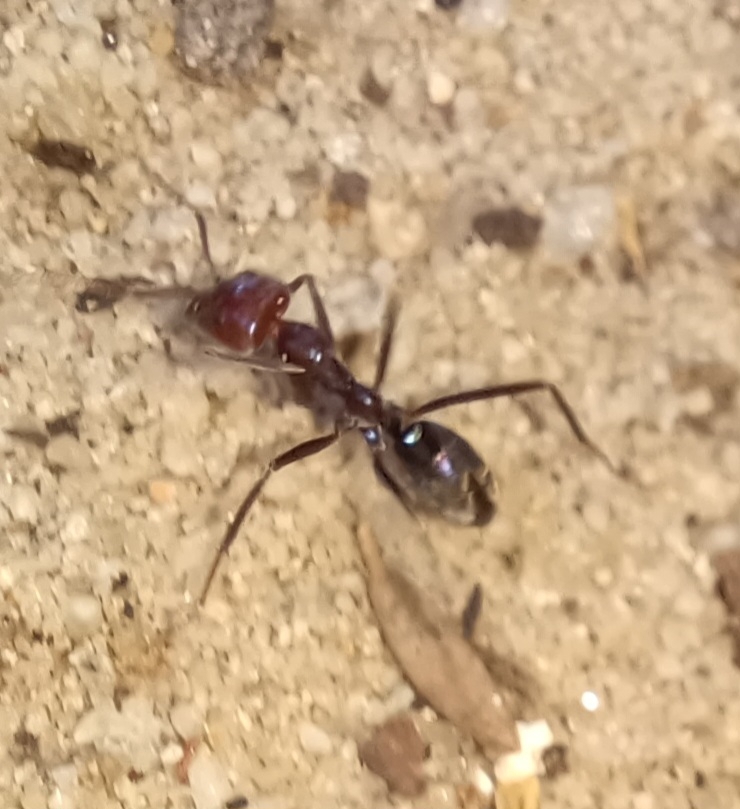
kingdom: Animalia
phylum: Arthropoda
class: Insecta
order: Hymenoptera
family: Formicidae
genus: Iridomyrmex
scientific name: Iridomyrmex purpureus
